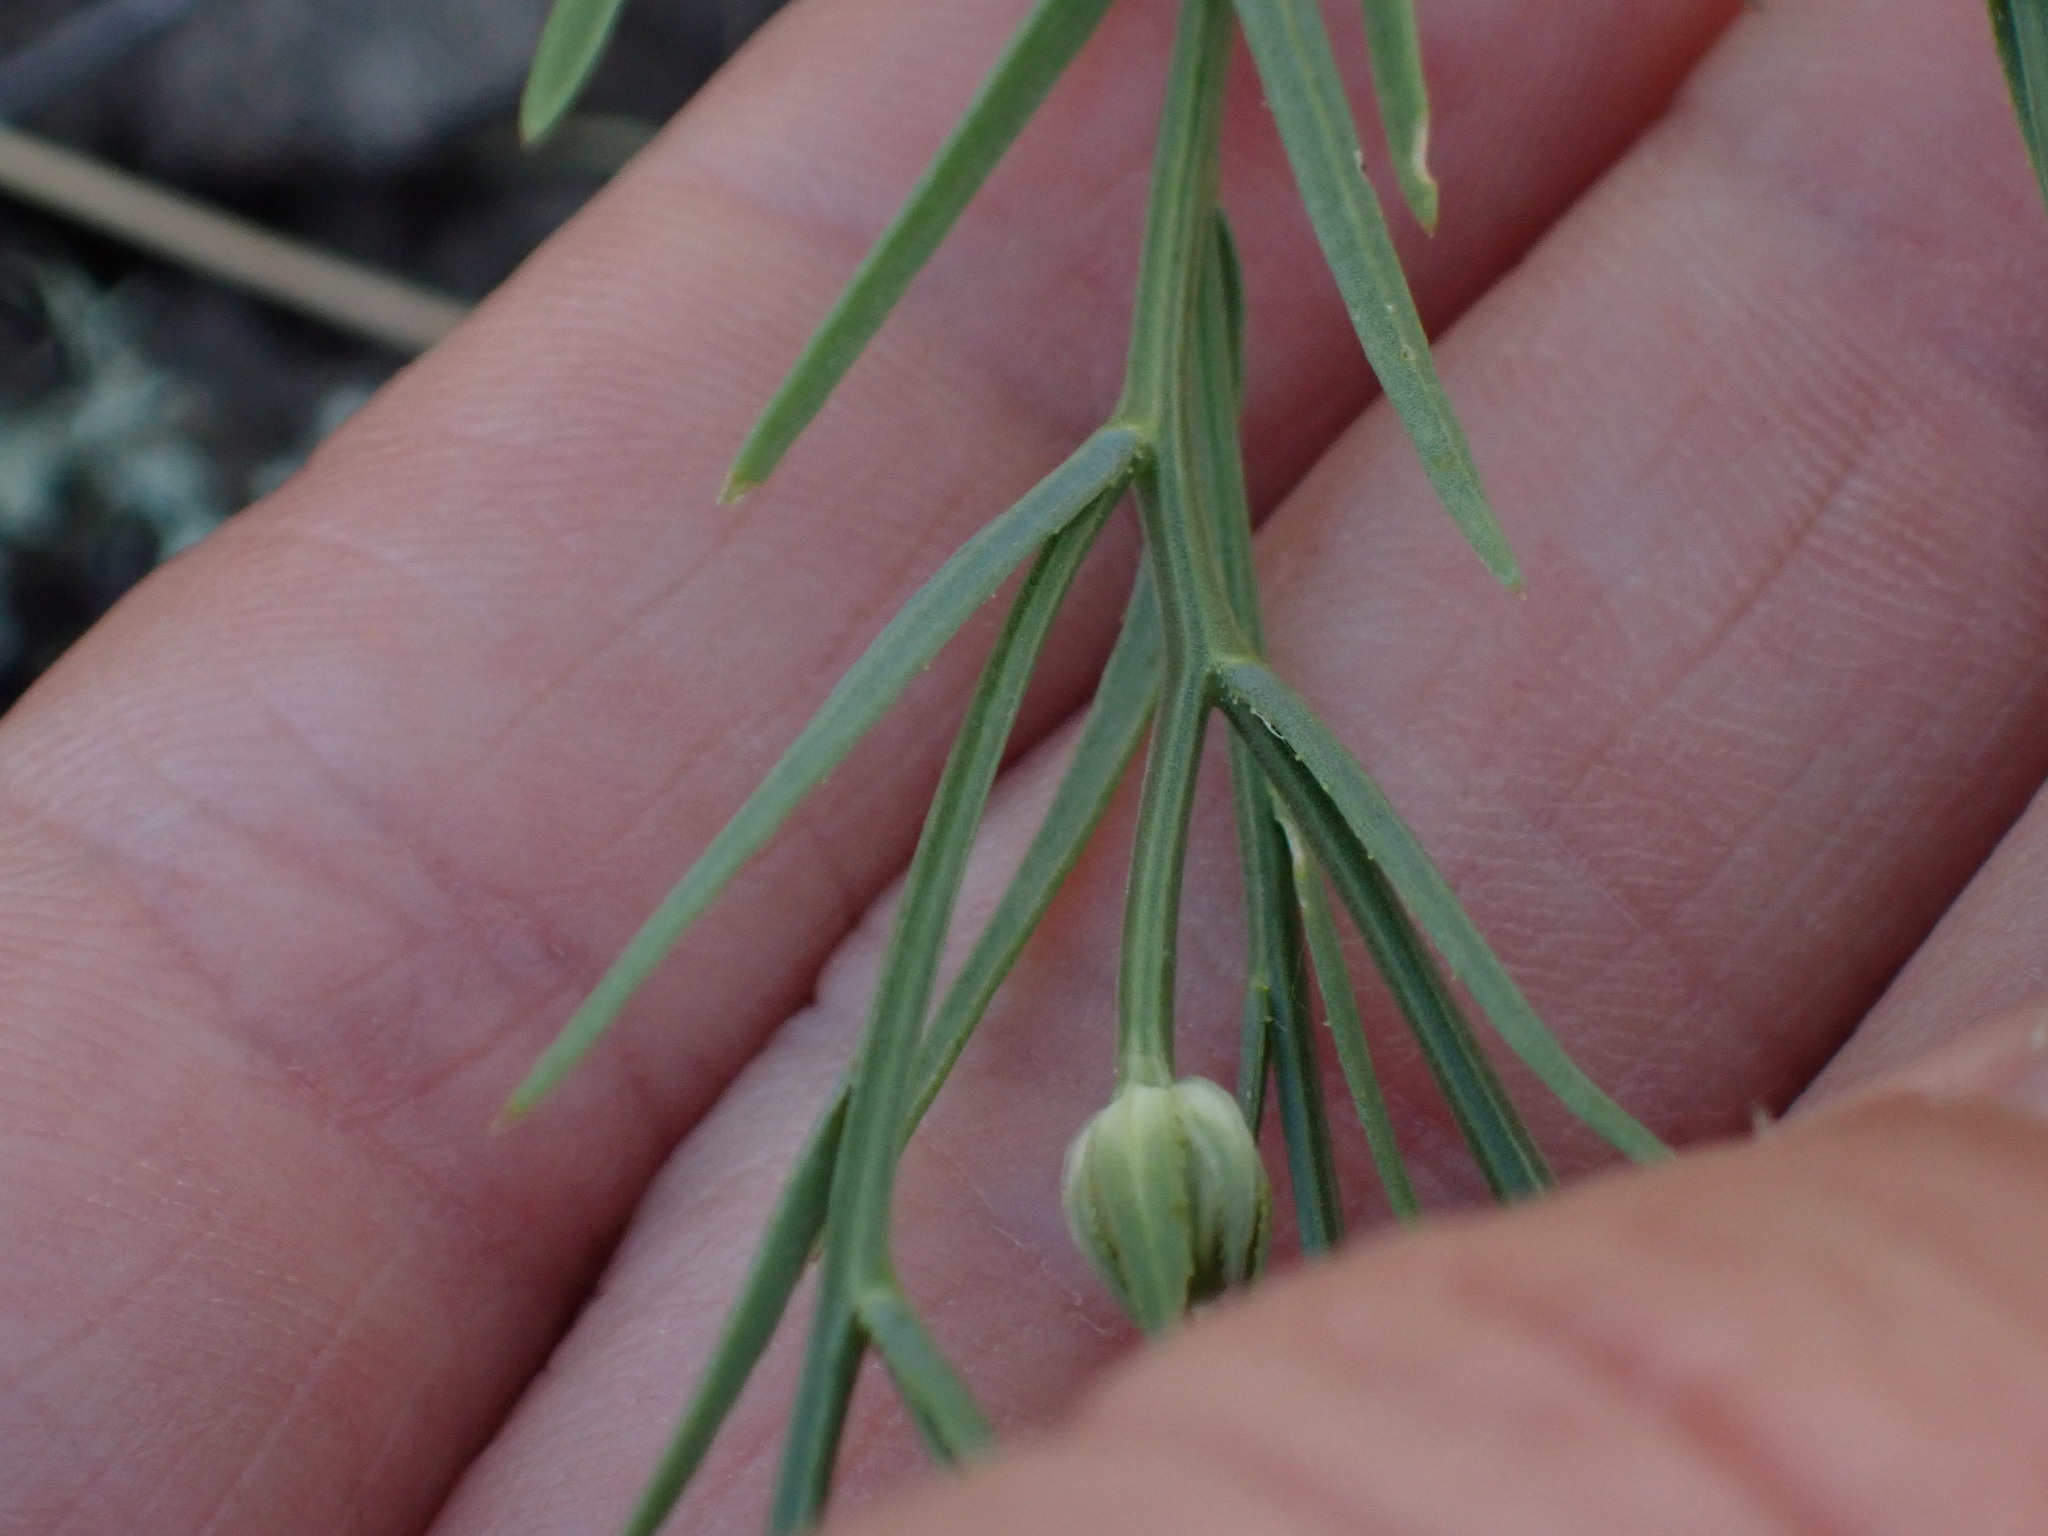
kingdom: Plantae
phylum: Tracheophyta
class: Magnoliopsida
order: Malpighiales
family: Linaceae
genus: Linum
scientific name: Linum compactum
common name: Wyoming flax
